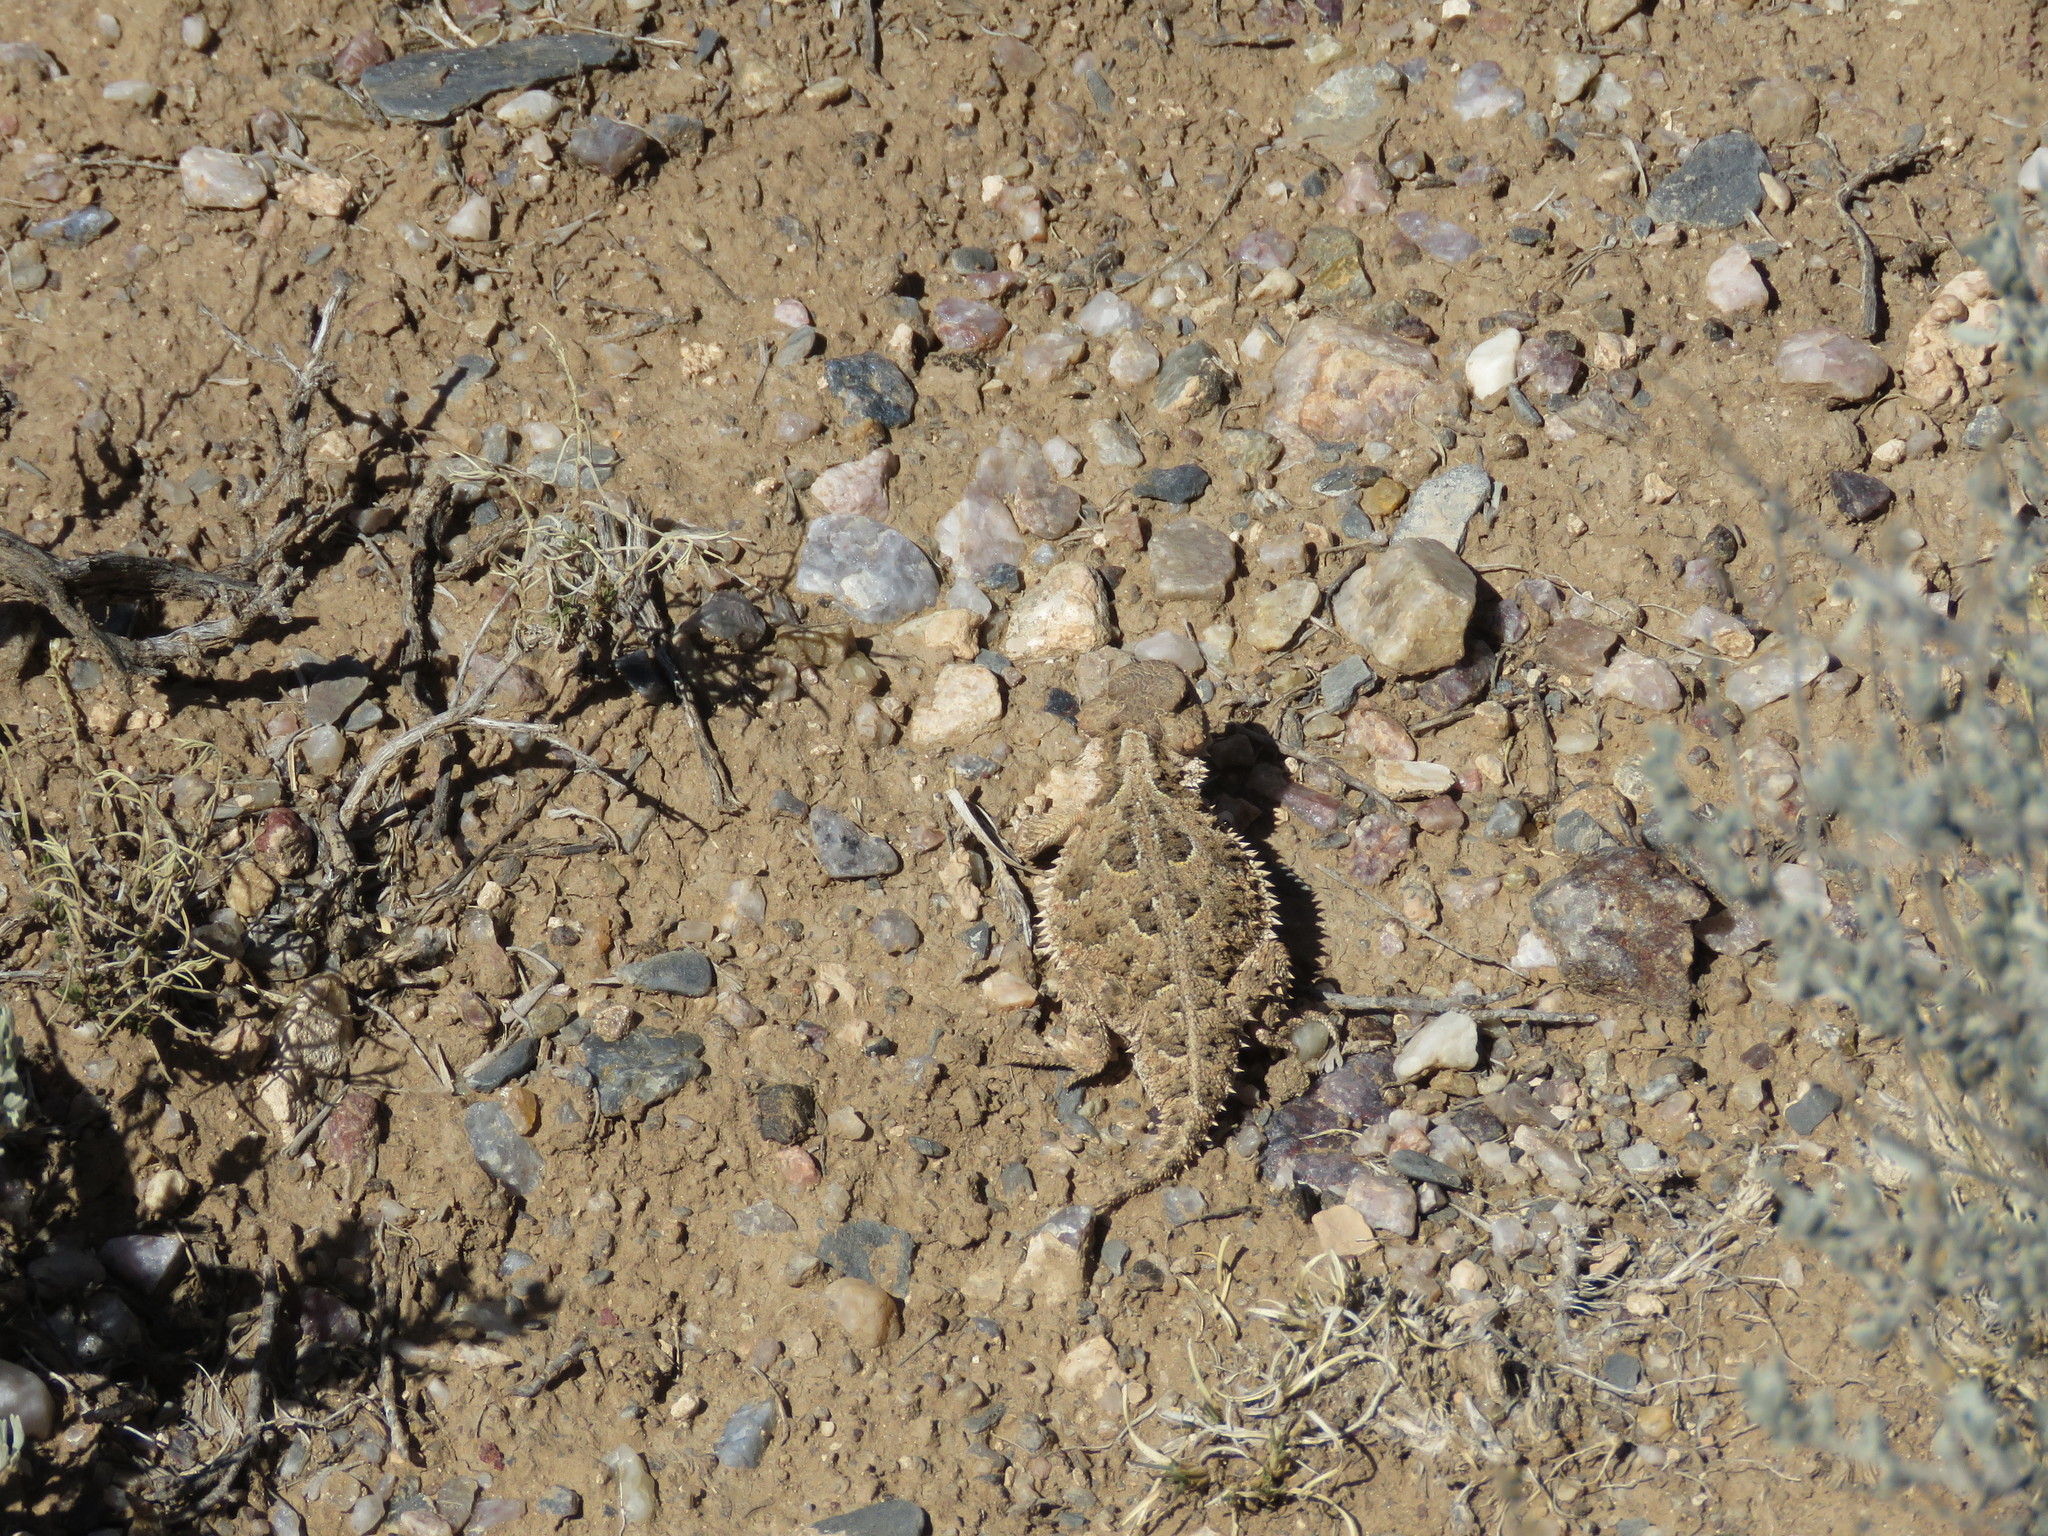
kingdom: Animalia
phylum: Chordata
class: Squamata
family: Phrynosomatidae
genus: Phrynosoma
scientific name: Phrynosoma hernandesi
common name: Greater short-horned lizard
